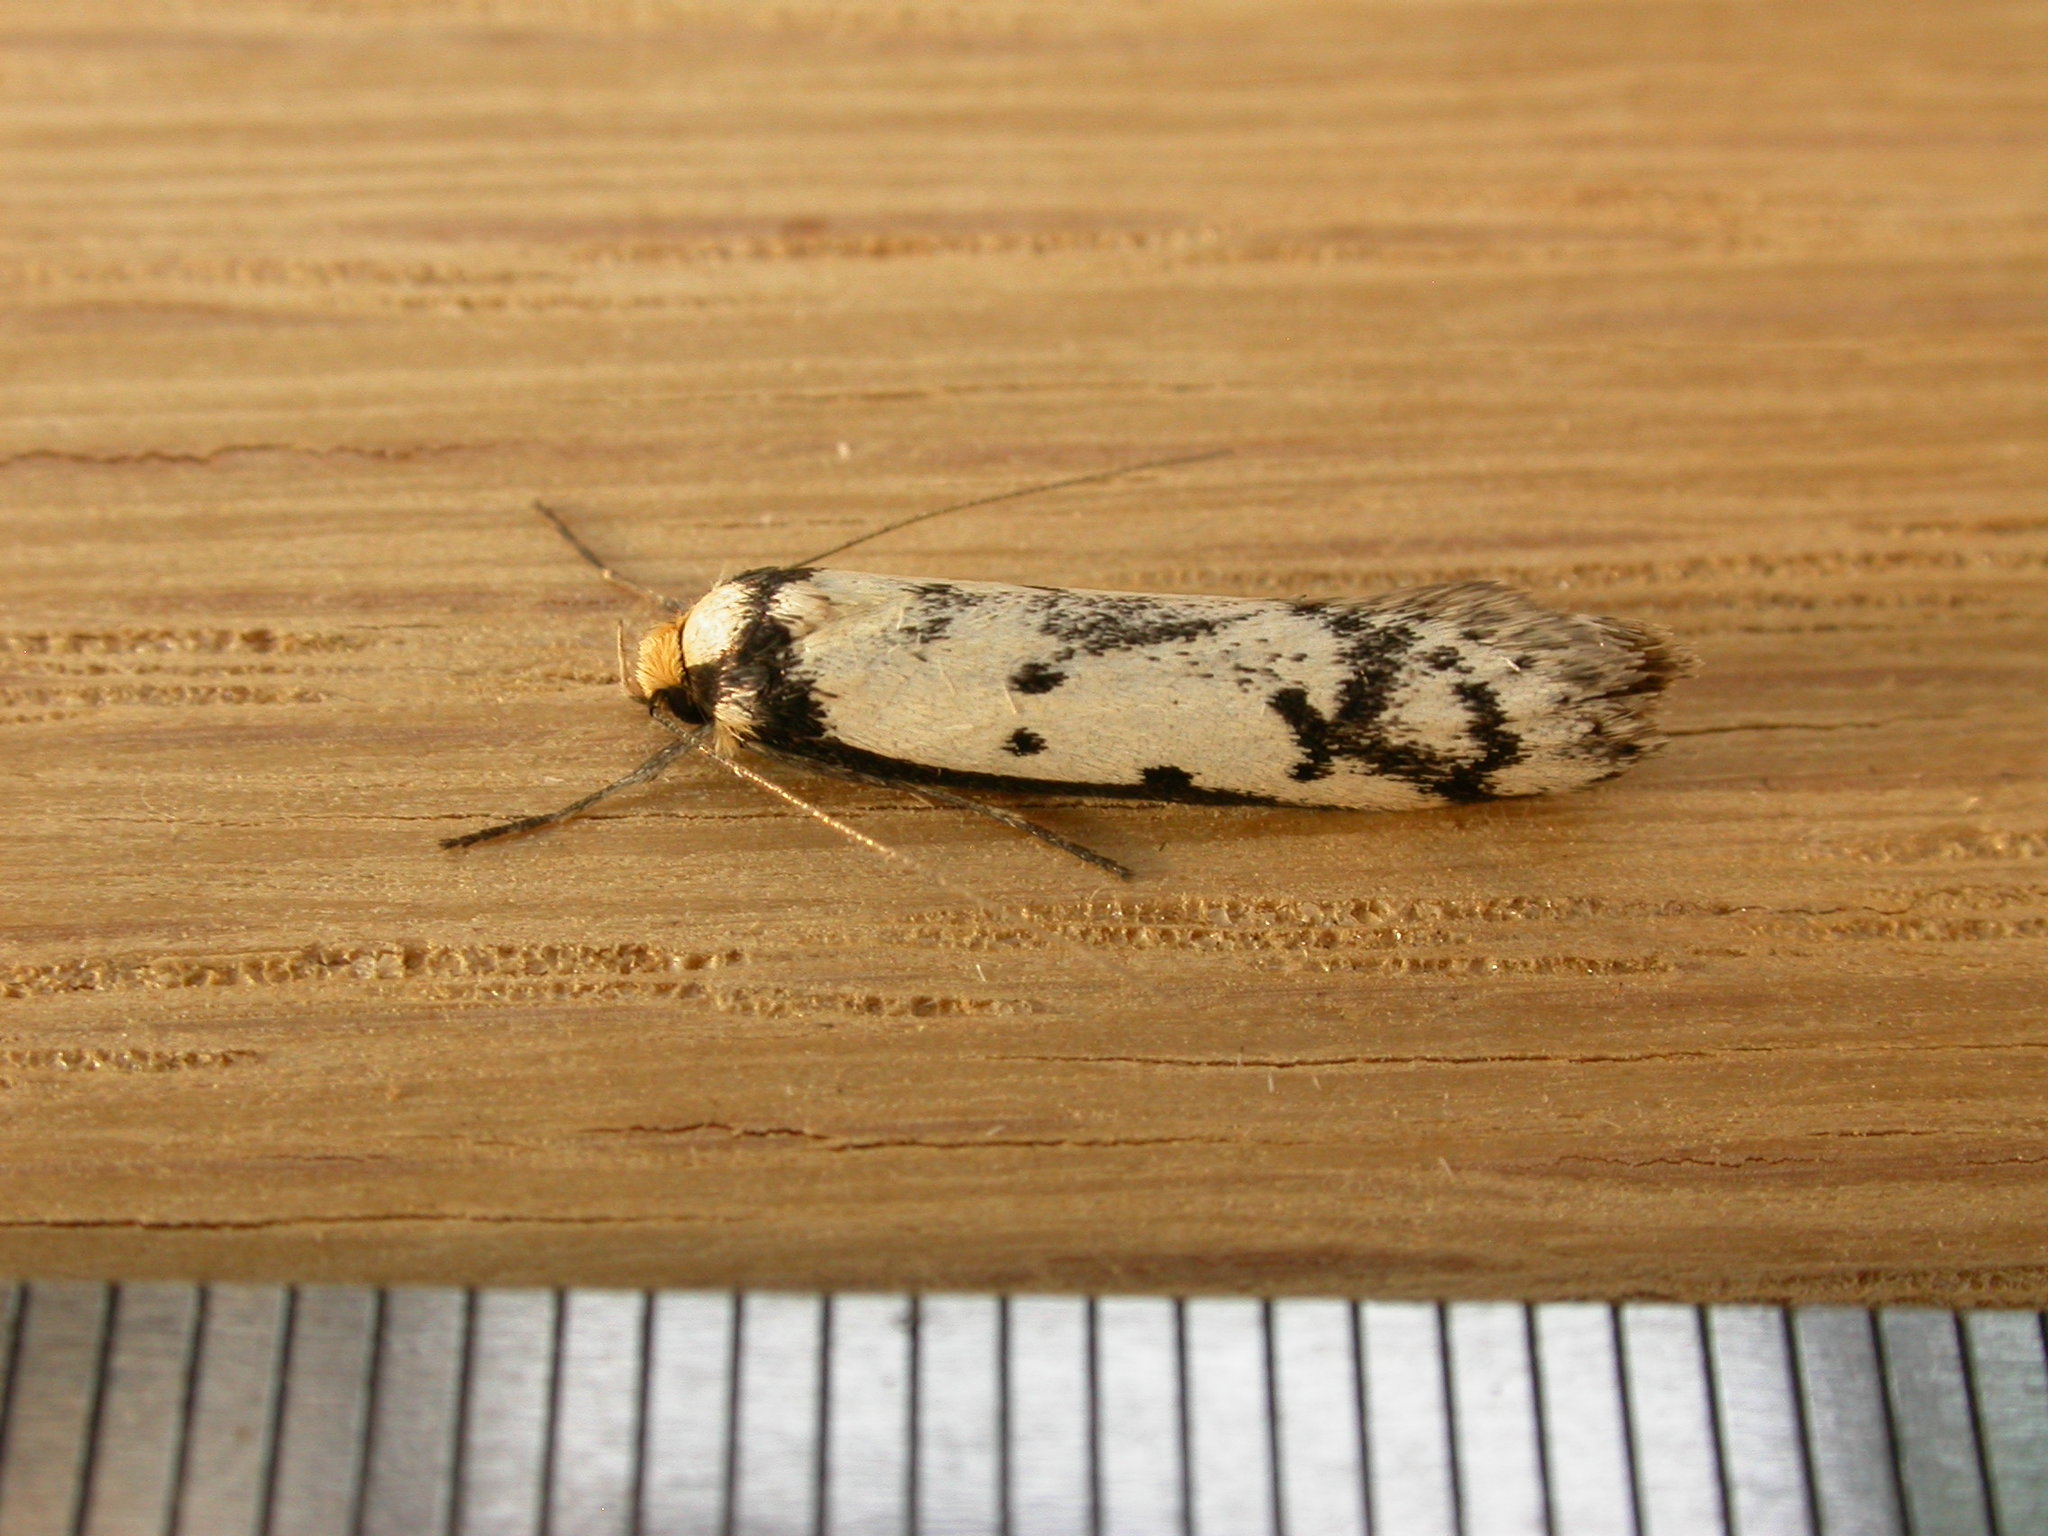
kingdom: Animalia
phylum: Arthropoda
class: Insecta
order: Lepidoptera
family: Oecophoridae
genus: Philobota
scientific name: Philobota lysizona
